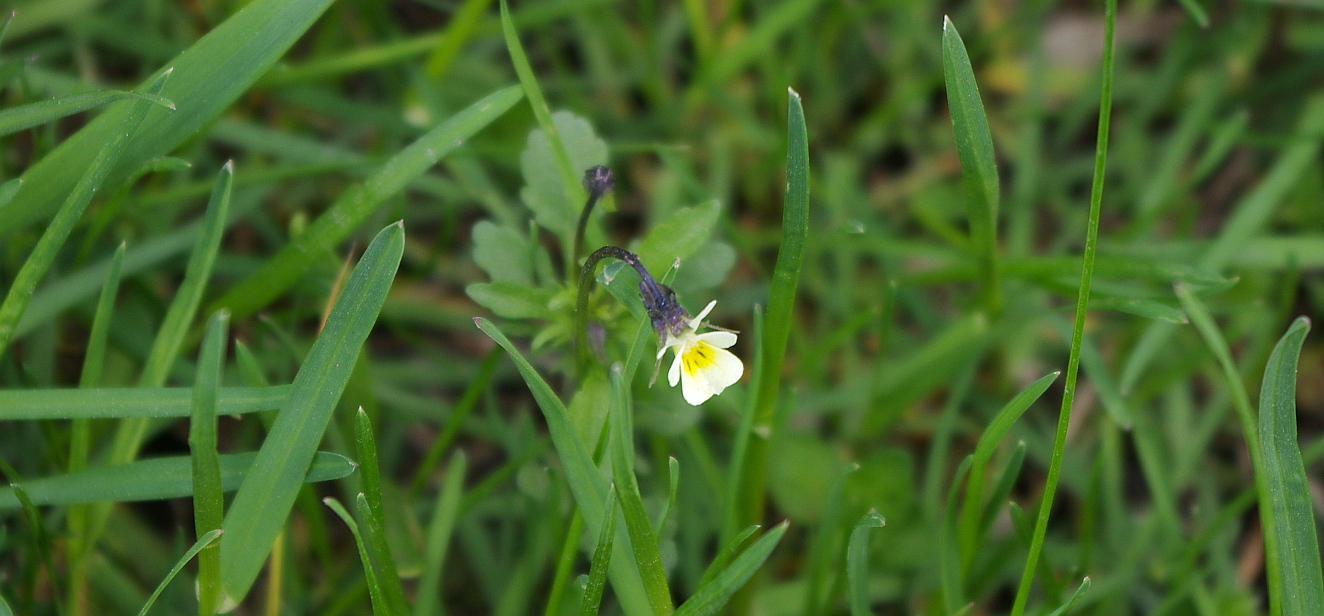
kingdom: Plantae
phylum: Tracheophyta
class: Magnoliopsida
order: Malpighiales
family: Violaceae
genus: Viola
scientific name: Viola arvensis
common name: Field pansy
